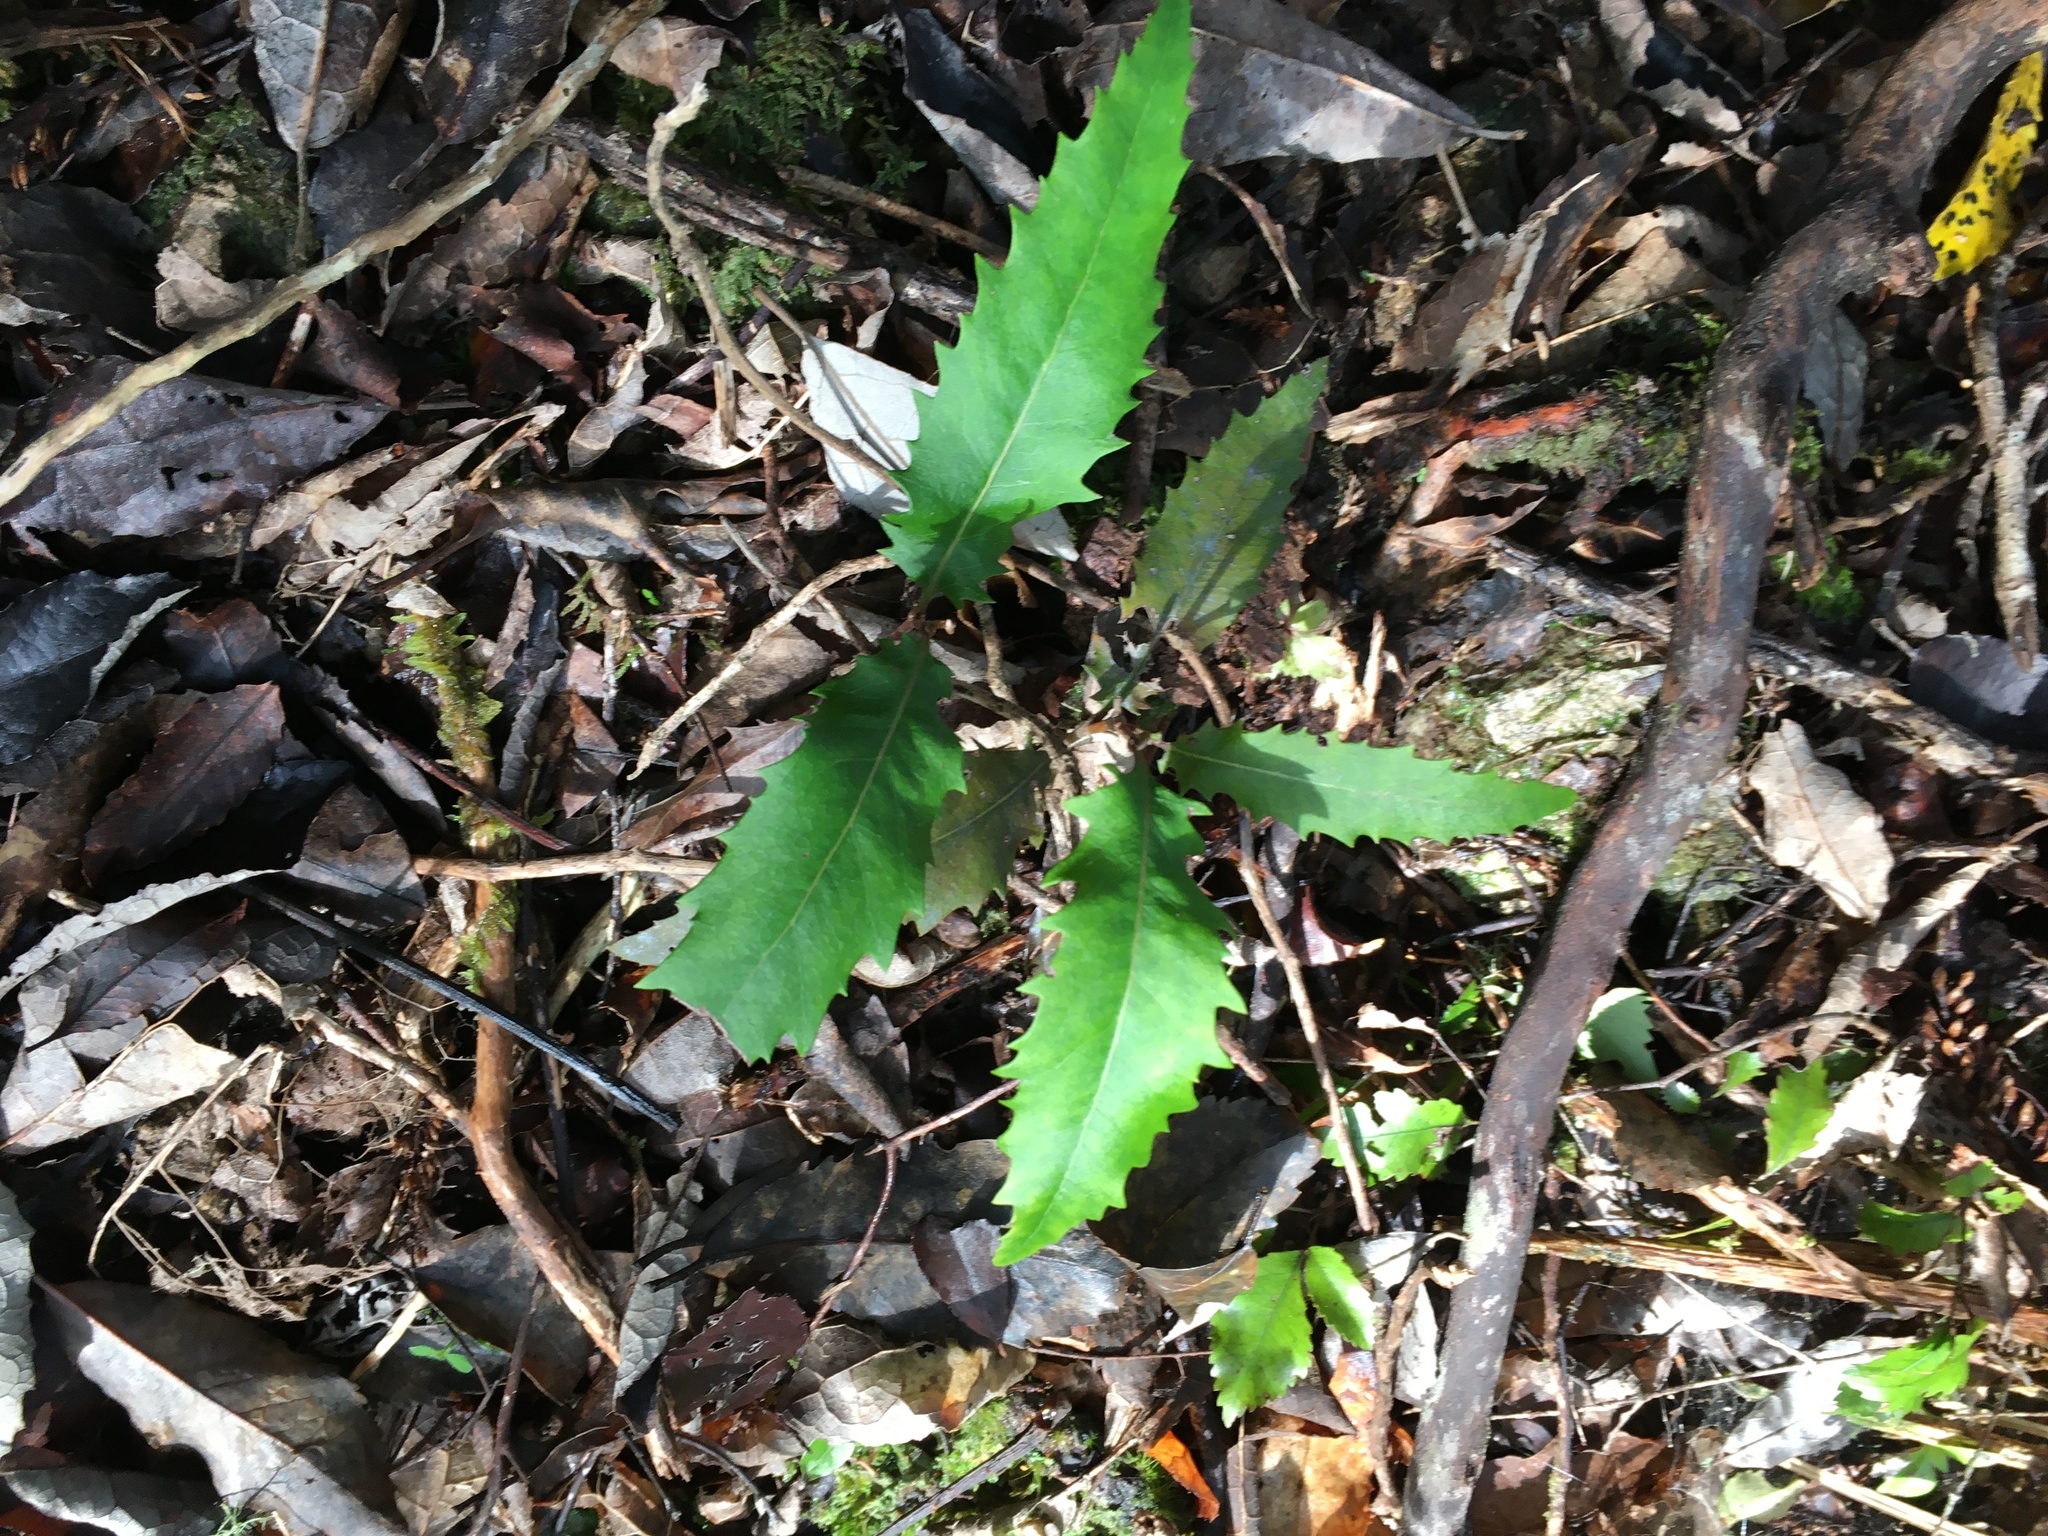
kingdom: Plantae
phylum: Tracheophyta
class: Magnoliopsida
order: Proteales
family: Proteaceae
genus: Lomatia
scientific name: Lomatia fraseri
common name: Forest lomatia
